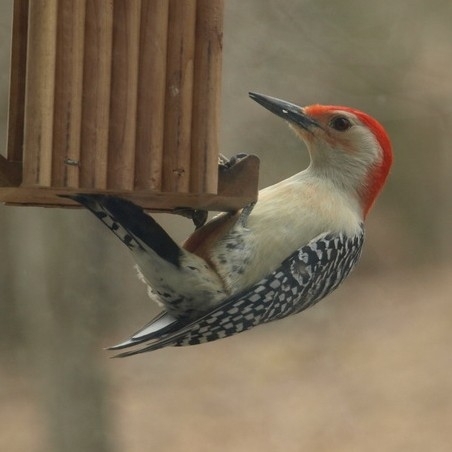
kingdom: Animalia
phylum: Chordata
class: Aves
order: Piciformes
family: Picidae
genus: Melanerpes
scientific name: Melanerpes carolinus
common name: Red-bellied woodpecker
